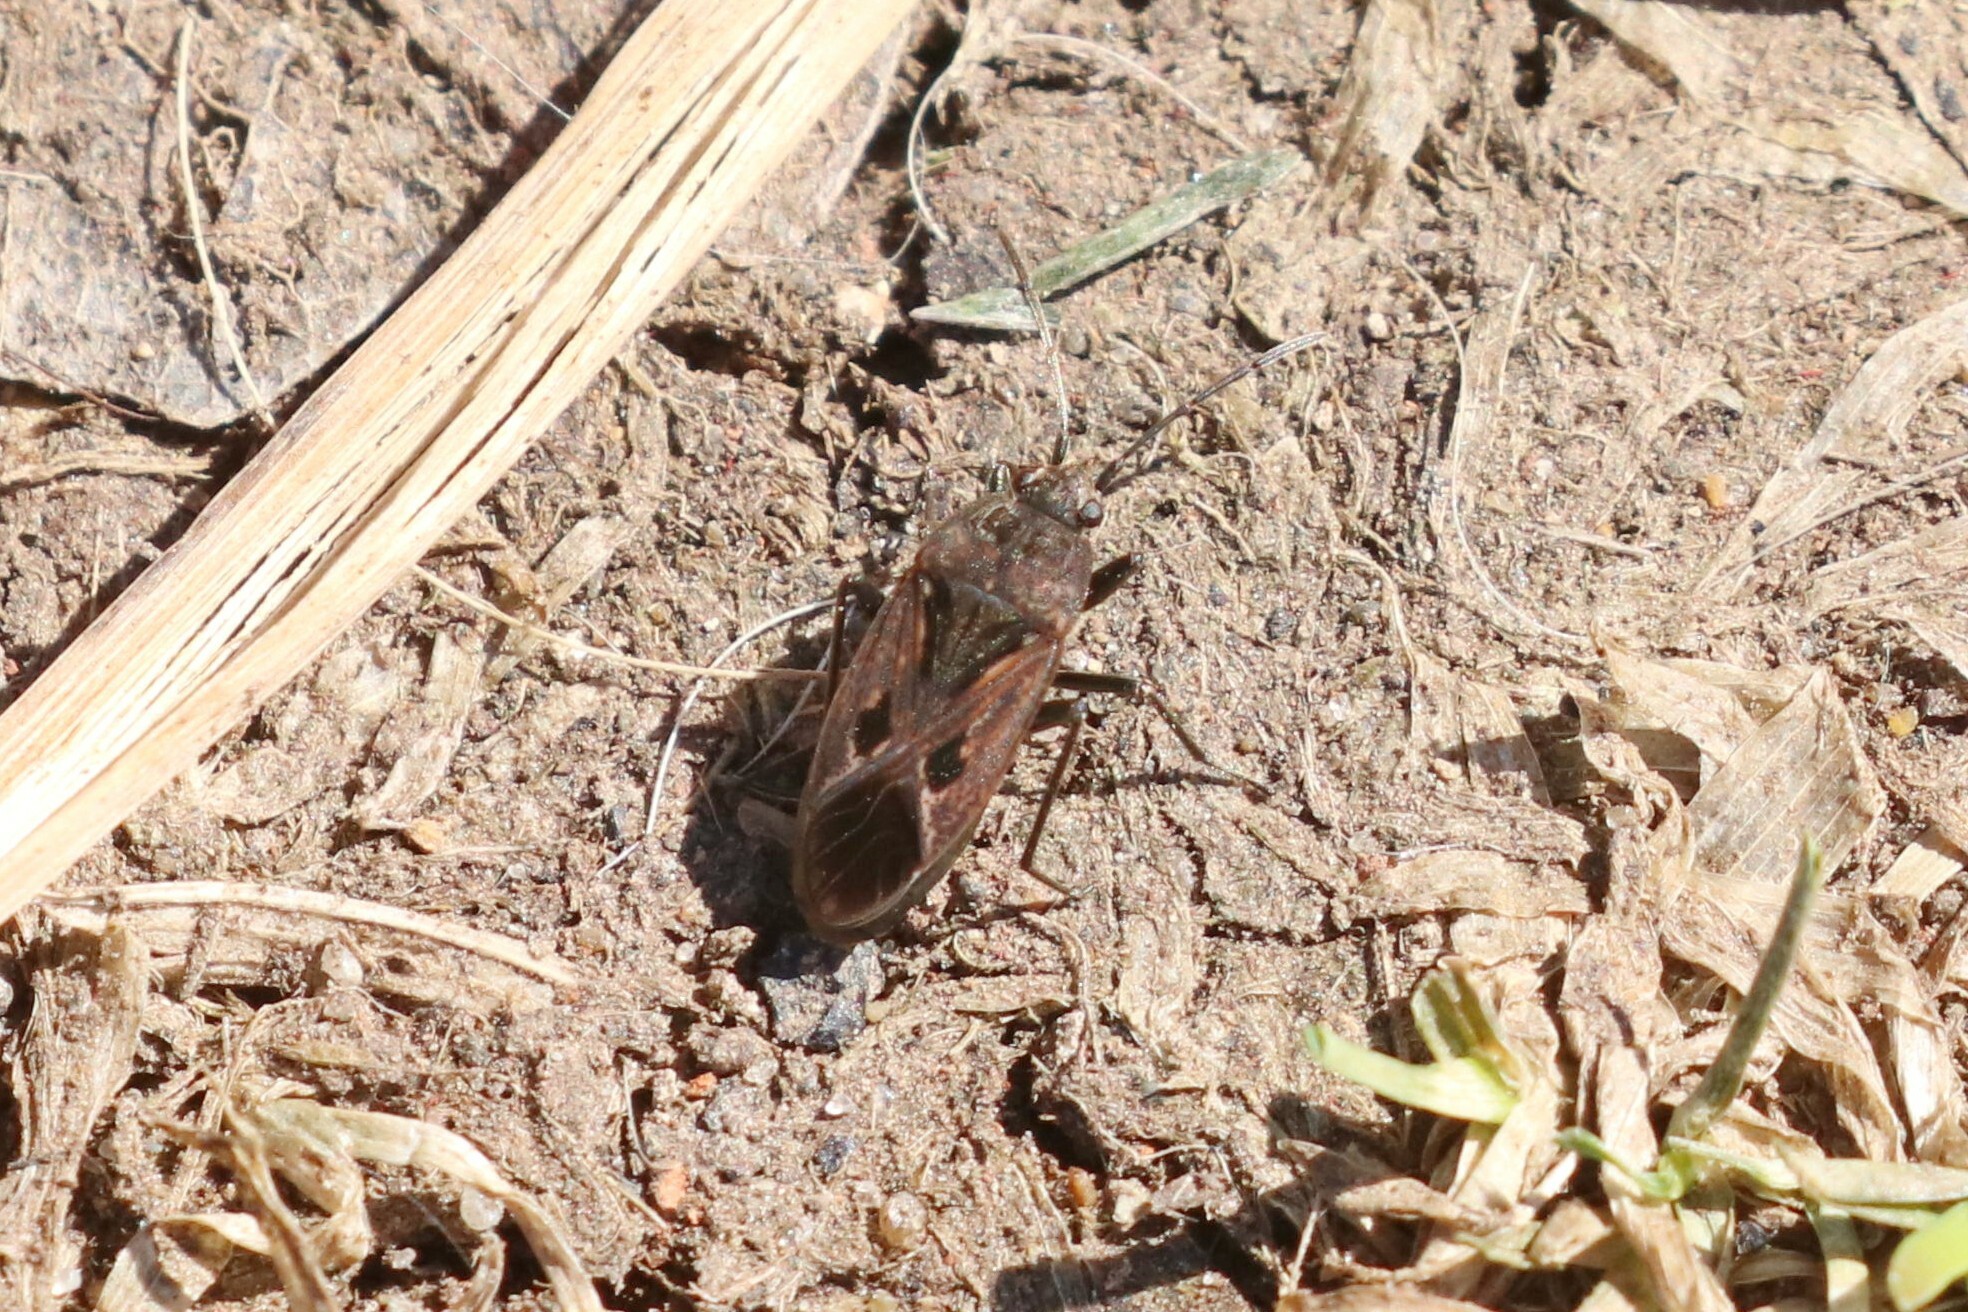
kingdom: Animalia
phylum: Arthropoda
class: Insecta
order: Hemiptera
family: Rhyparochromidae
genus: Rhyparochromus
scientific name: Rhyparochromus pini
